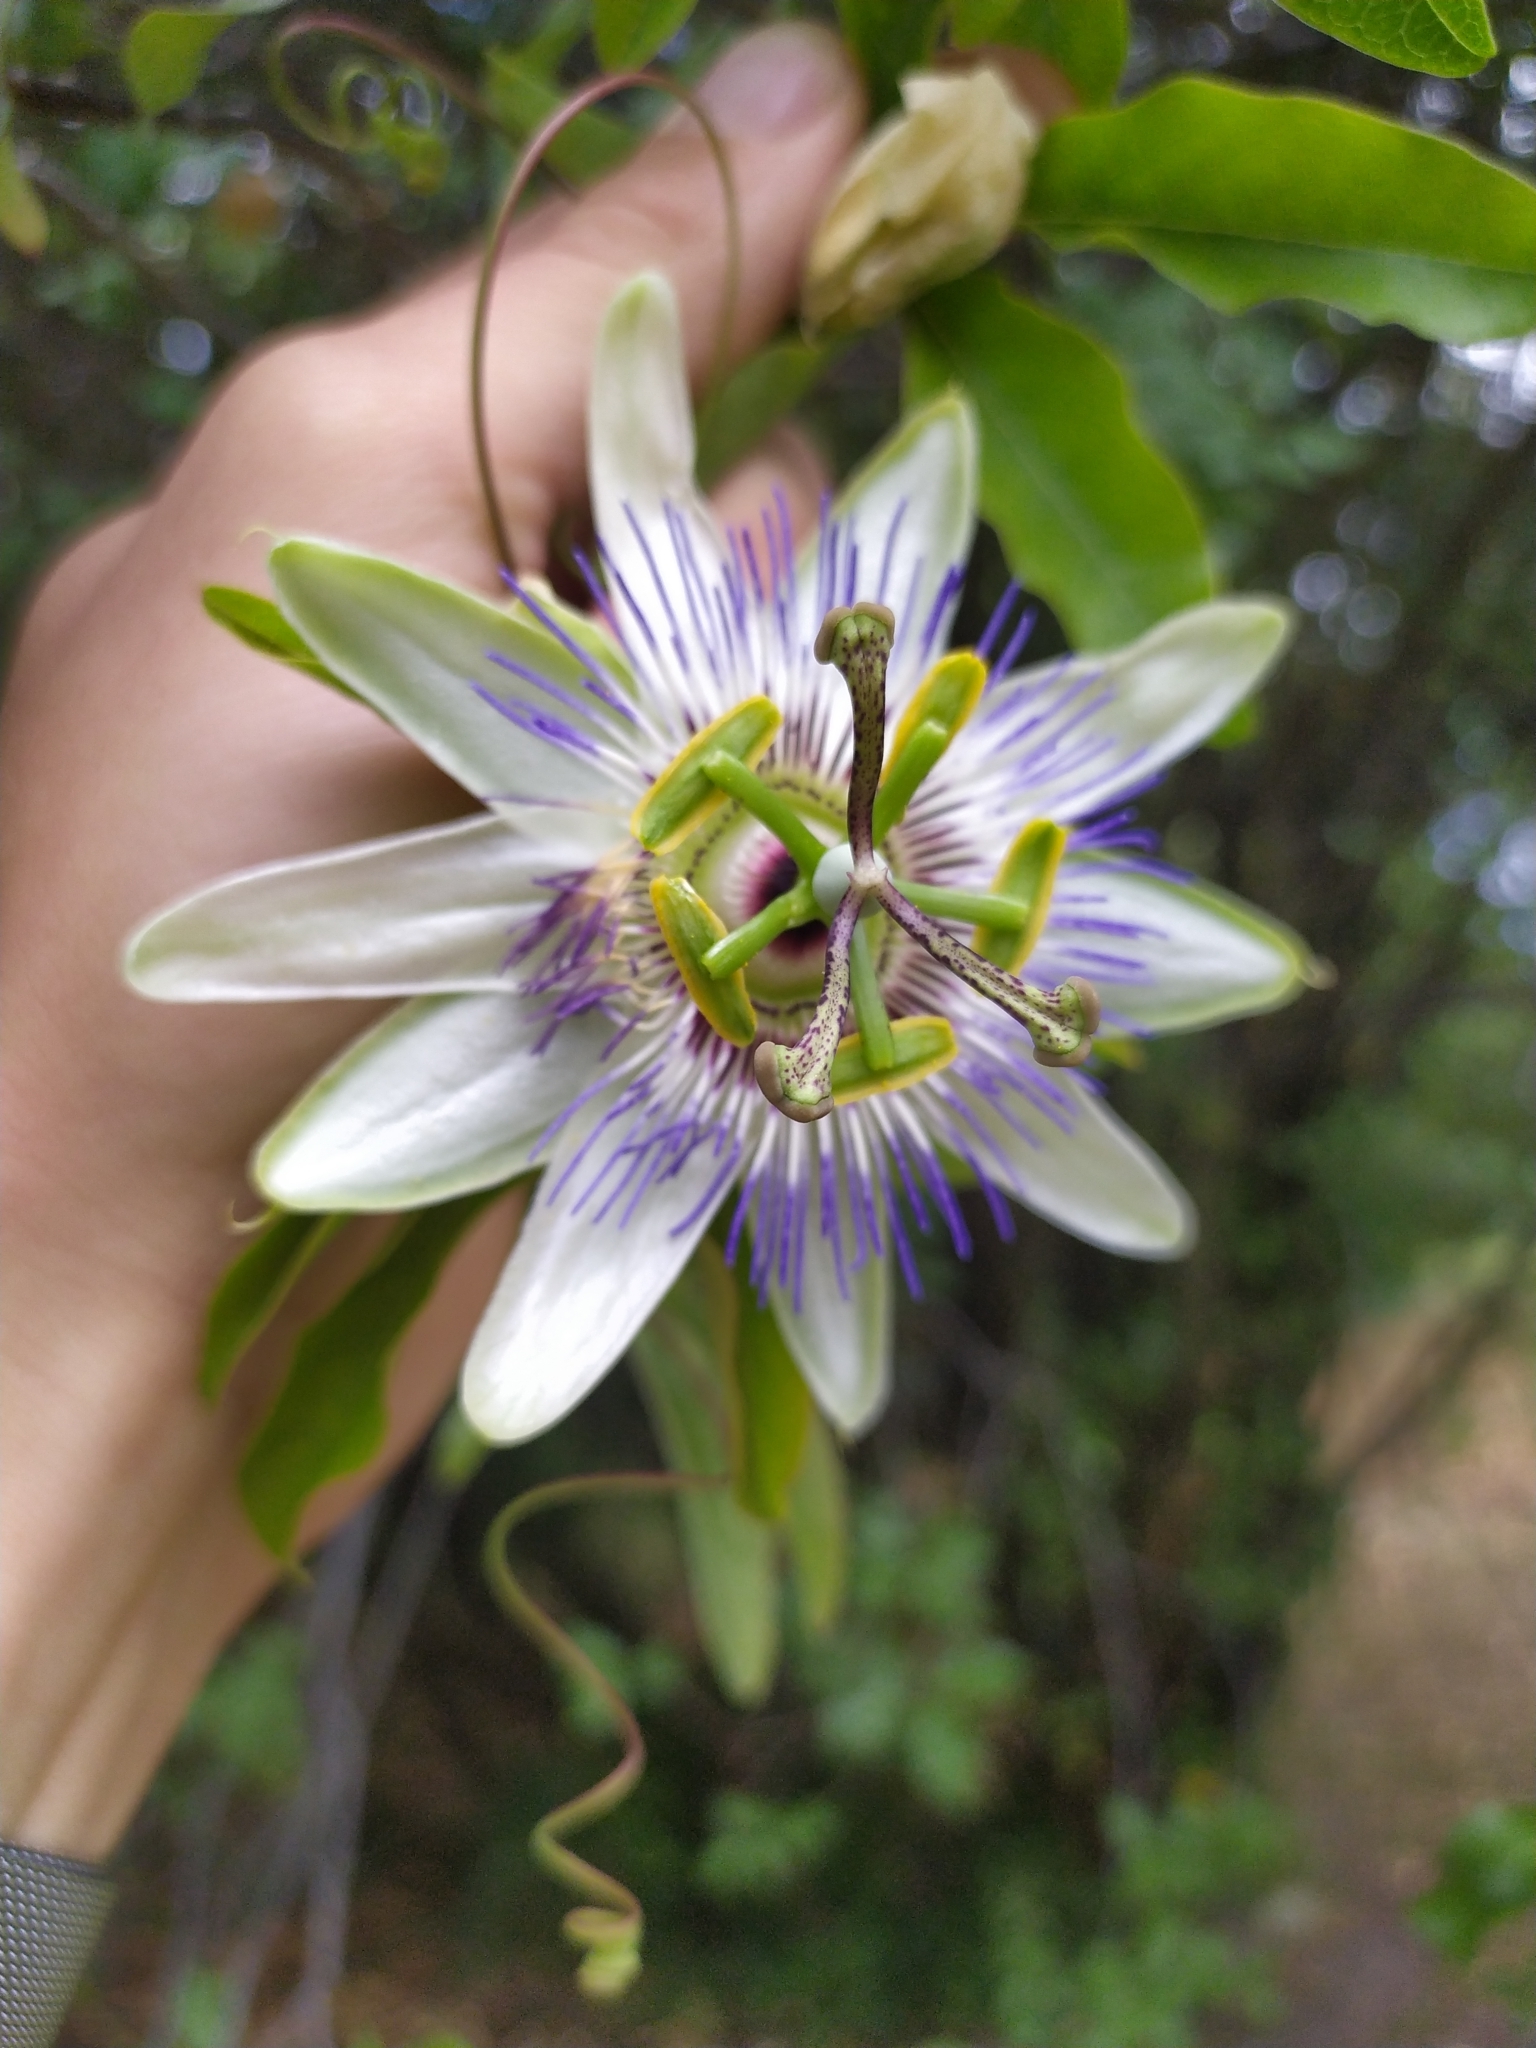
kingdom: Plantae
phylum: Tracheophyta
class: Magnoliopsida
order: Malpighiales
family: Passifloraceae
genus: Passiflora
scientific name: Passiflora caerulea
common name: Blue passionflower
